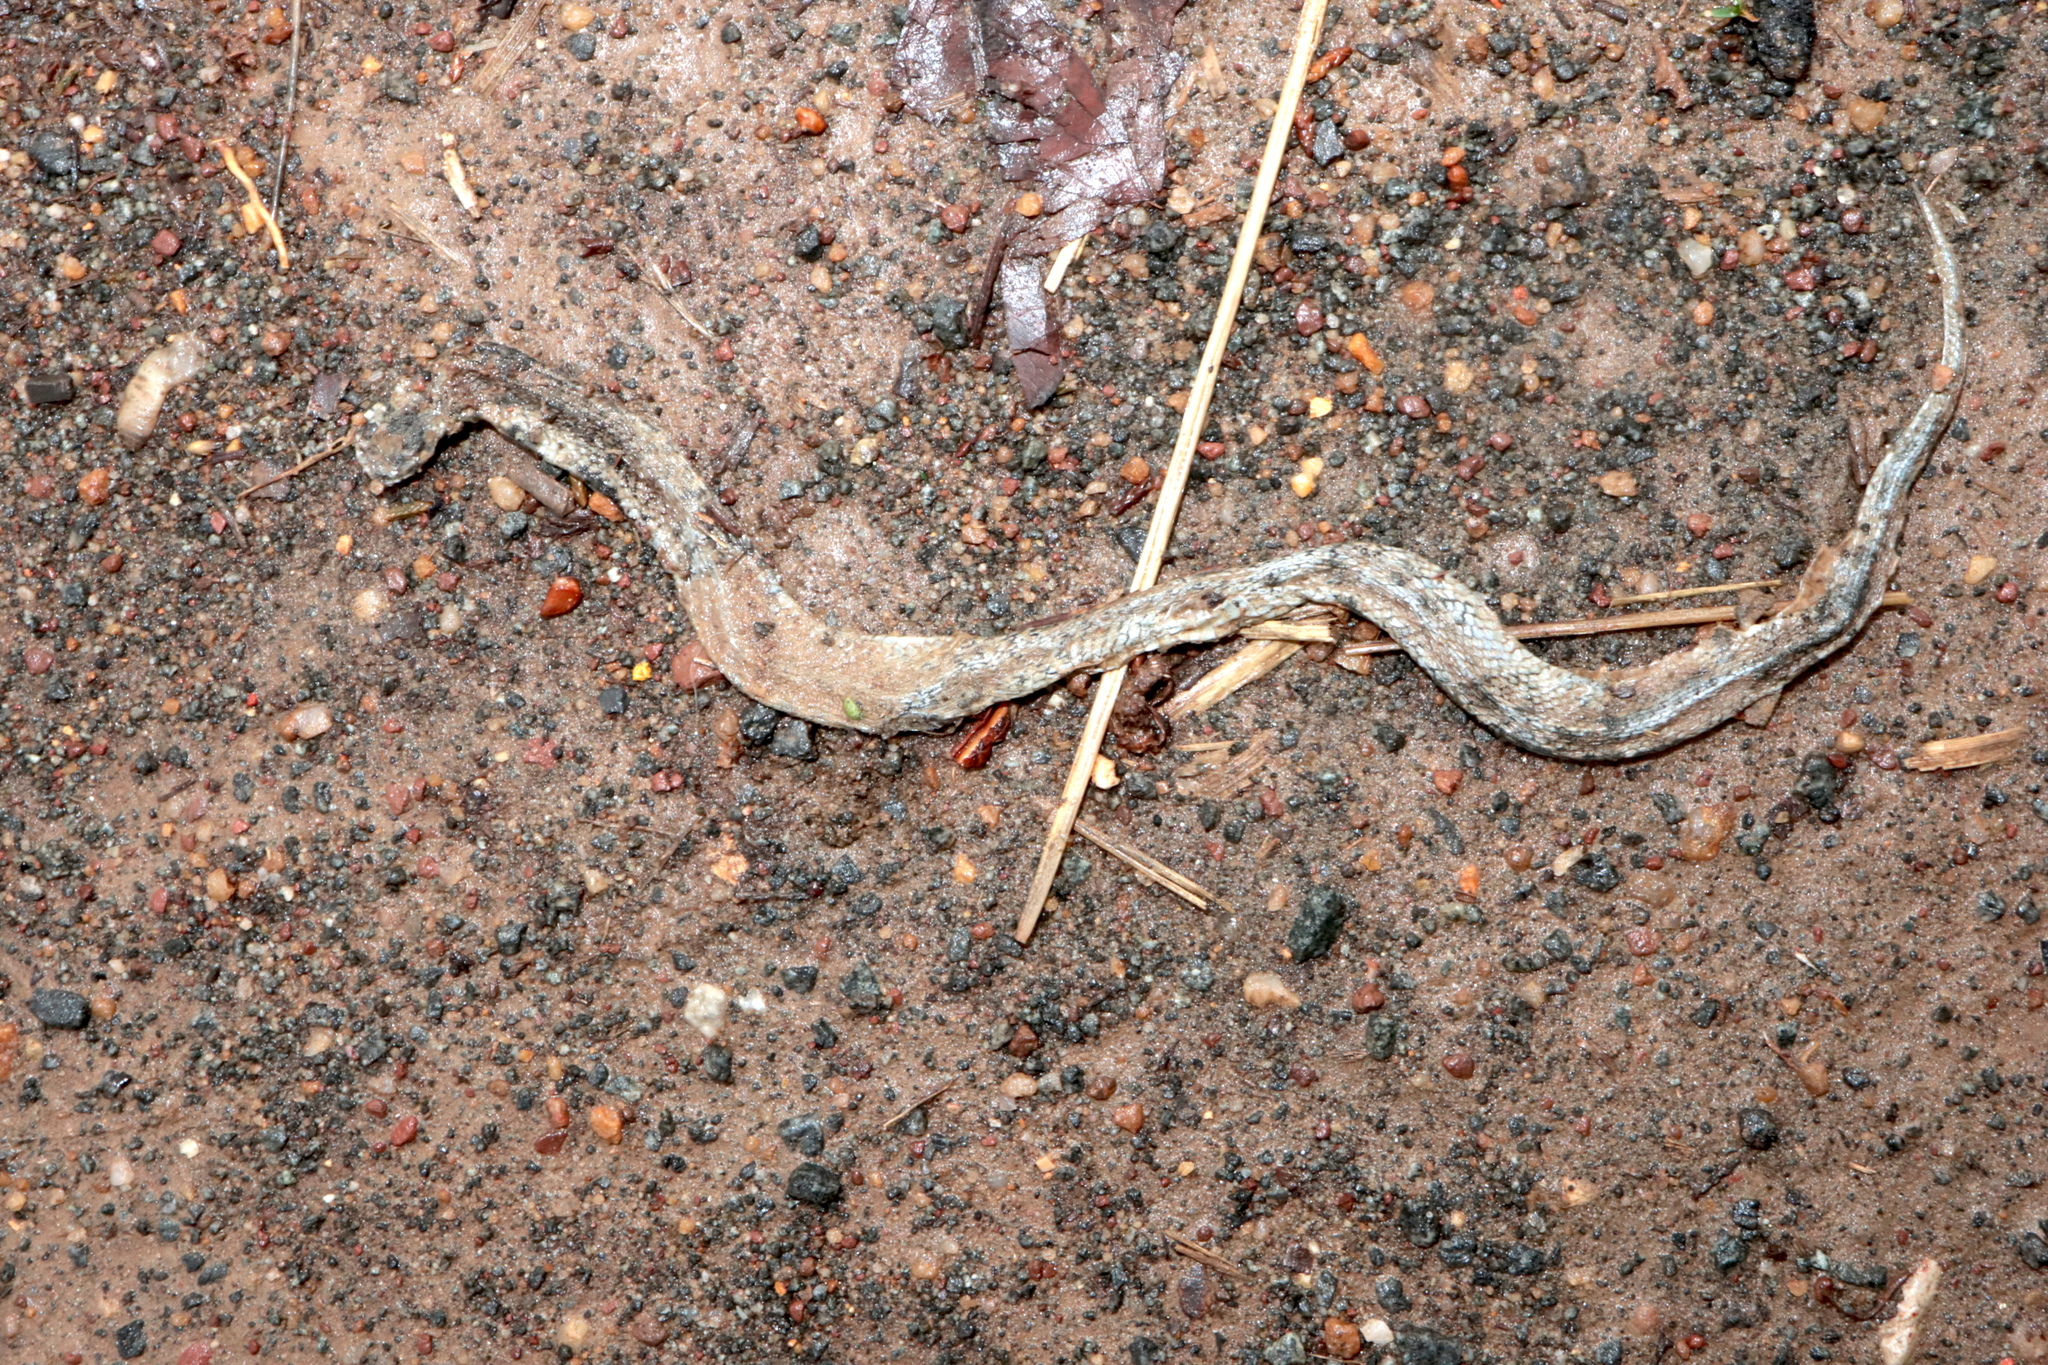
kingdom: Animalia
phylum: Chordata
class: Squamata
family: Colubridae
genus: Storeria
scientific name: Storeria dekayi
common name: (dekay’s) brown snake
